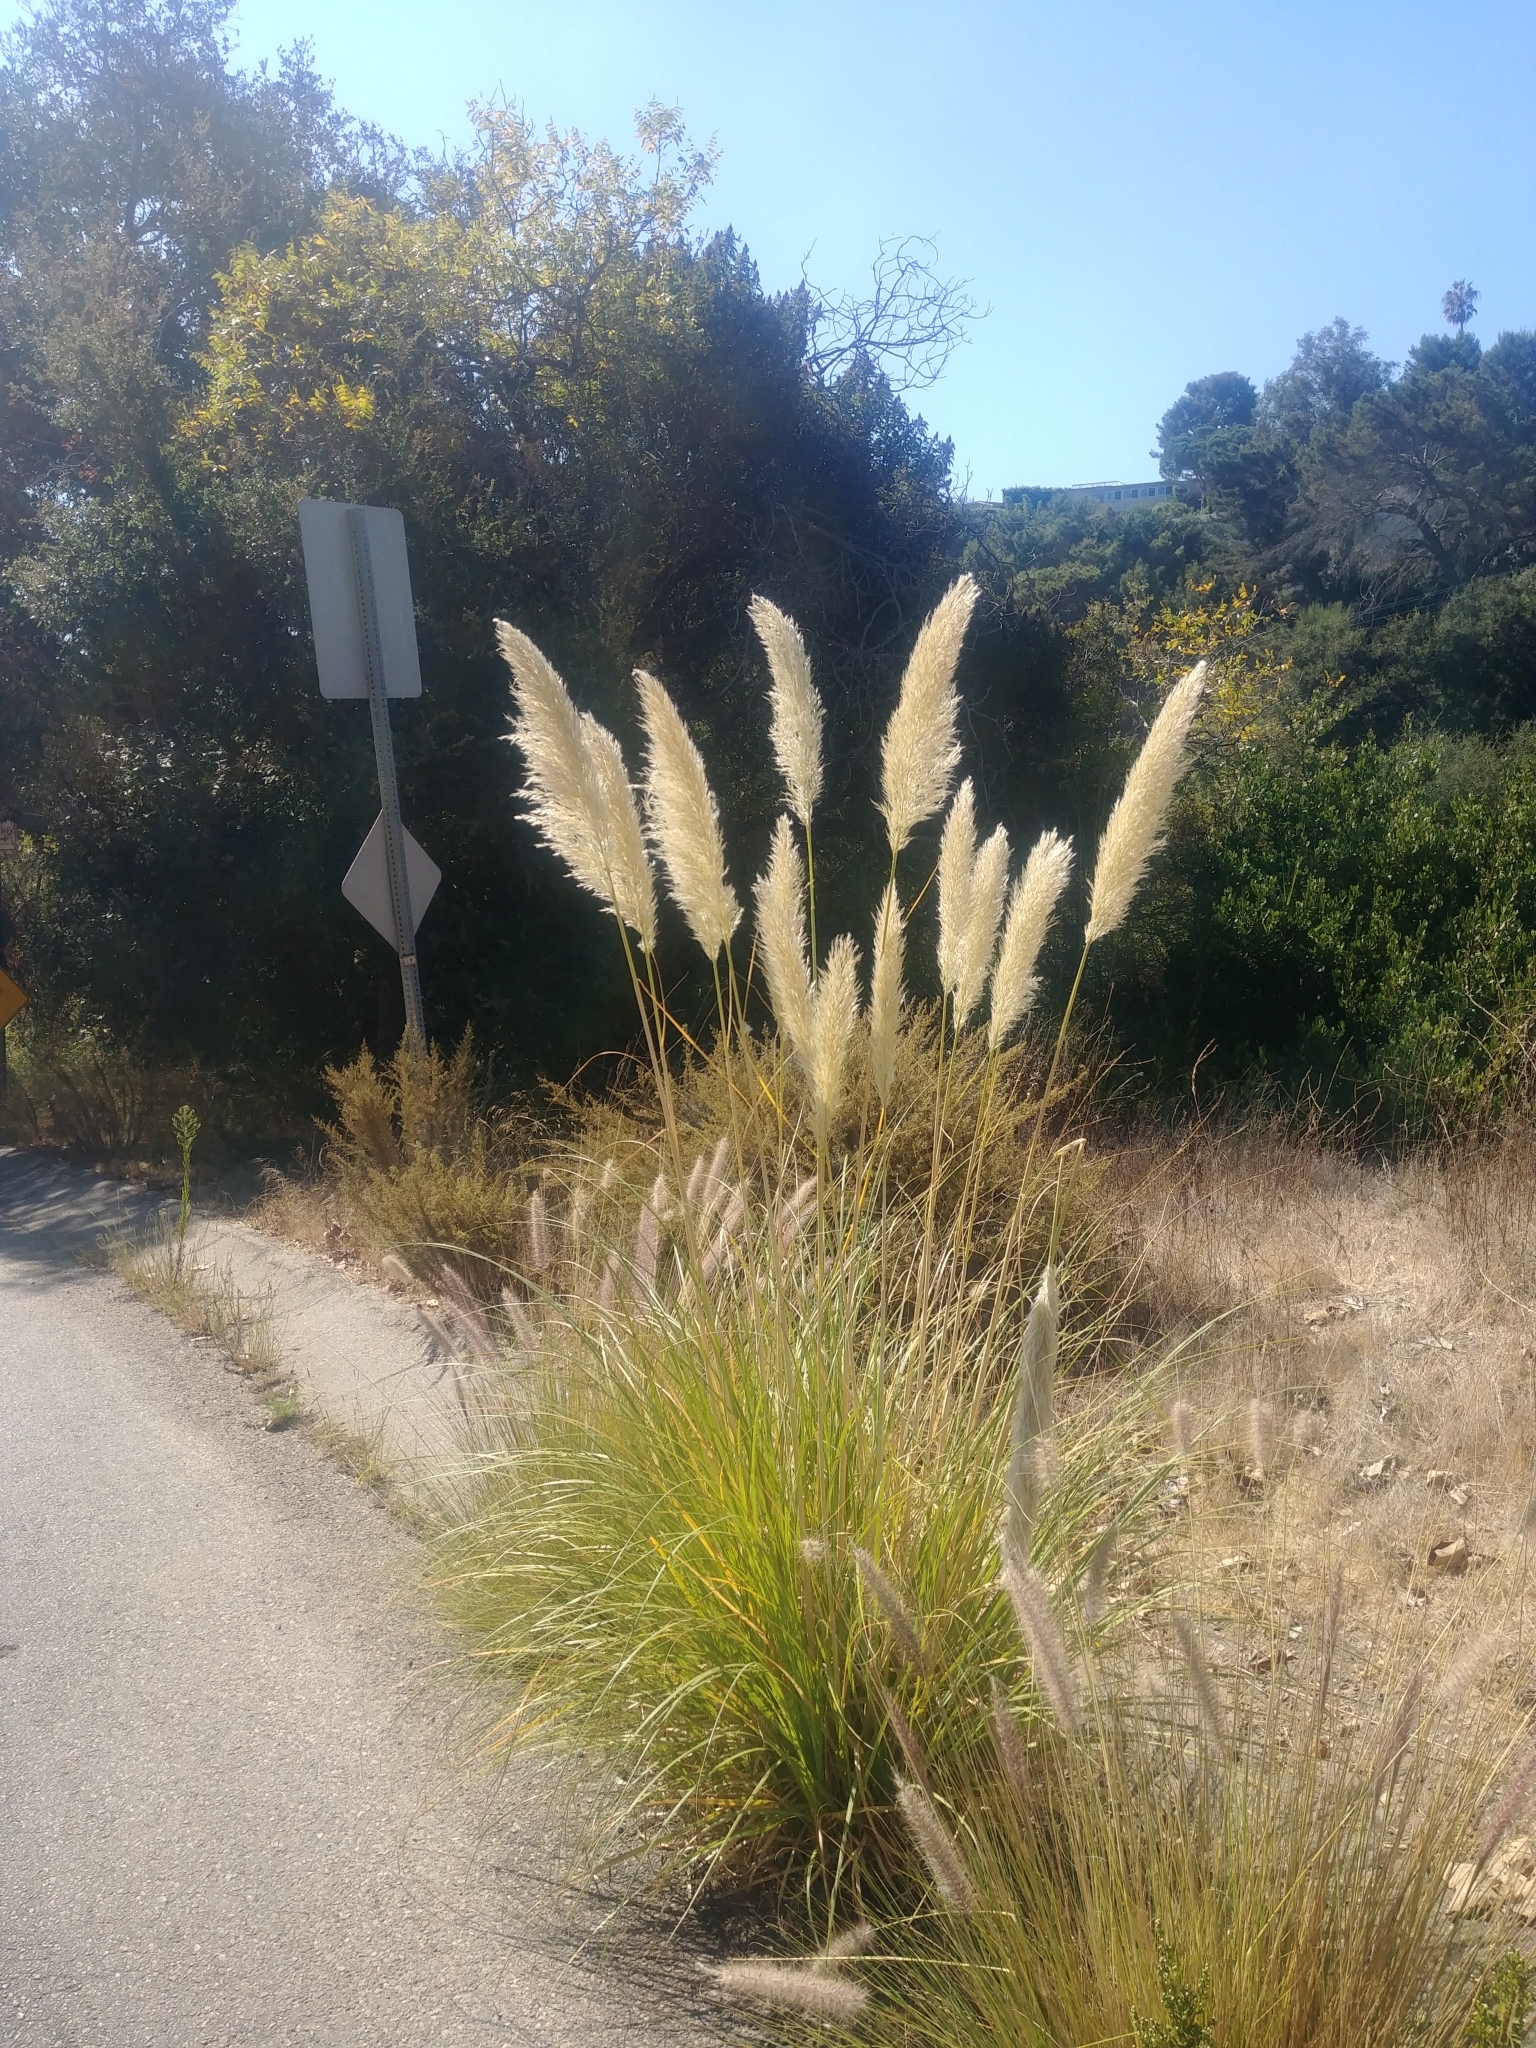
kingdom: Plantae
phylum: Tracheophyta
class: Liliopsida
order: Poales
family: Poaceae
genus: Cortaderia
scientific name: Cortaderia selloana
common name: Uruguayan pampas grass
